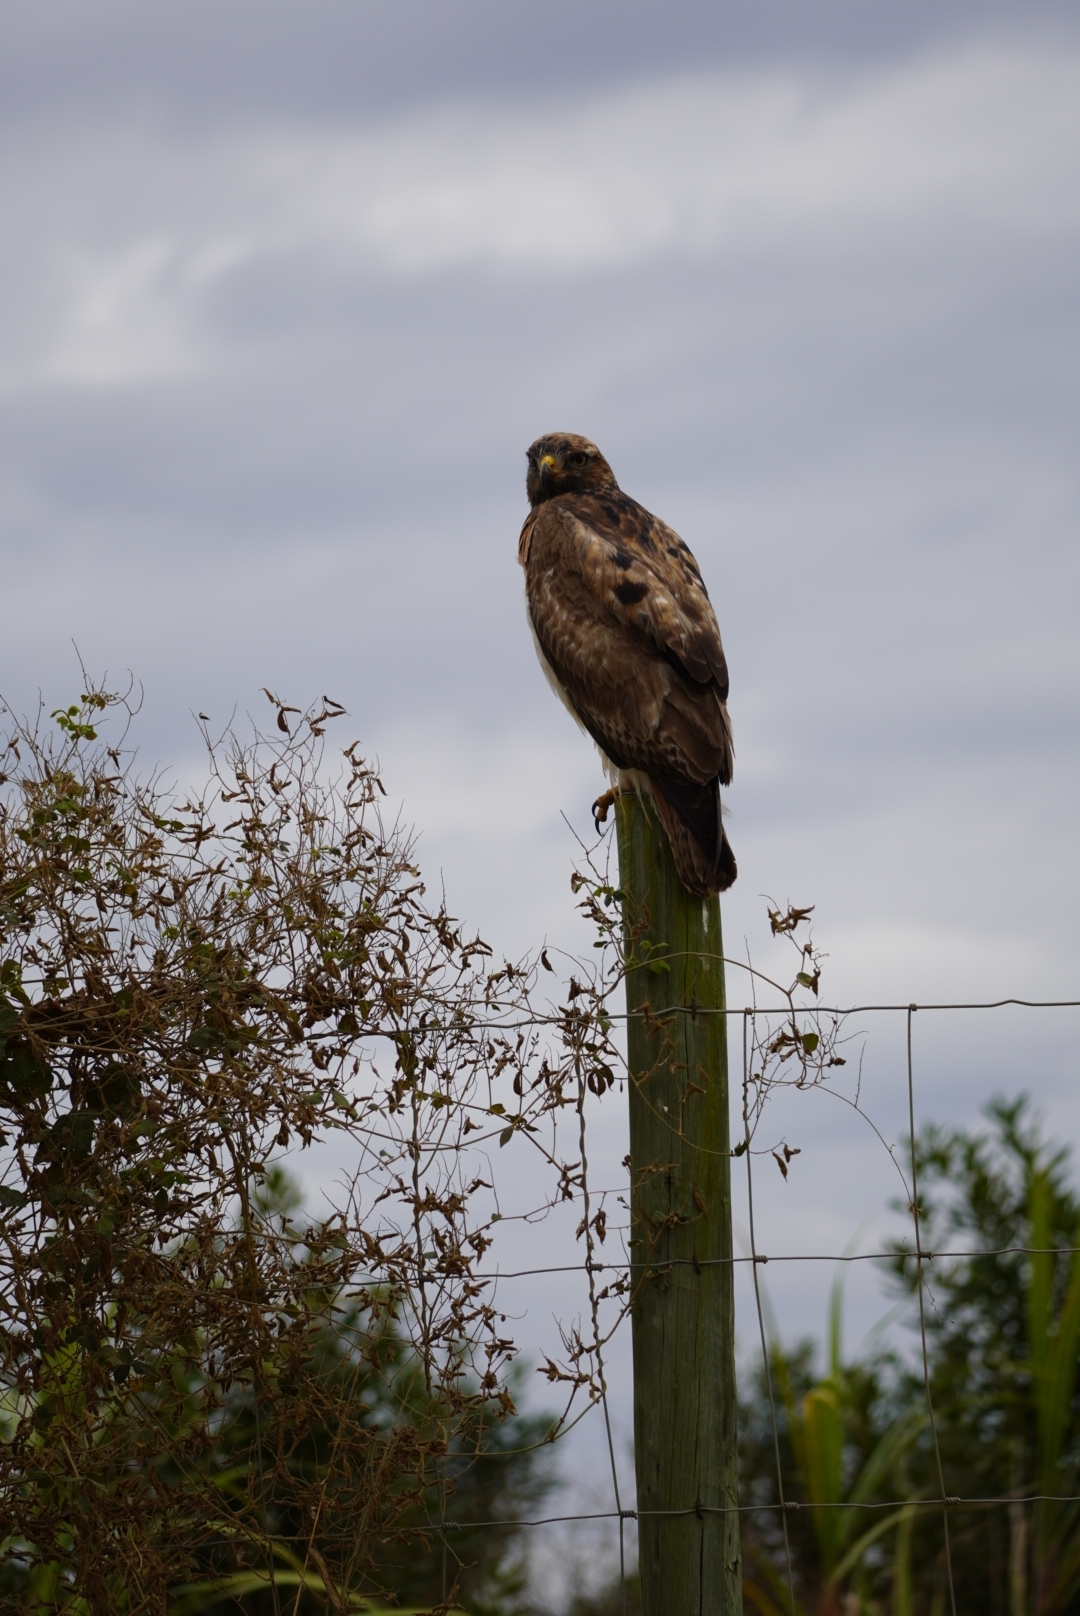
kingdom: Animalia
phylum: Chordata
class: Aves
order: Accipitriformes
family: Accipitridae
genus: Buteo
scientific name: Buteo rufofuscus
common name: Jackal buzzard
